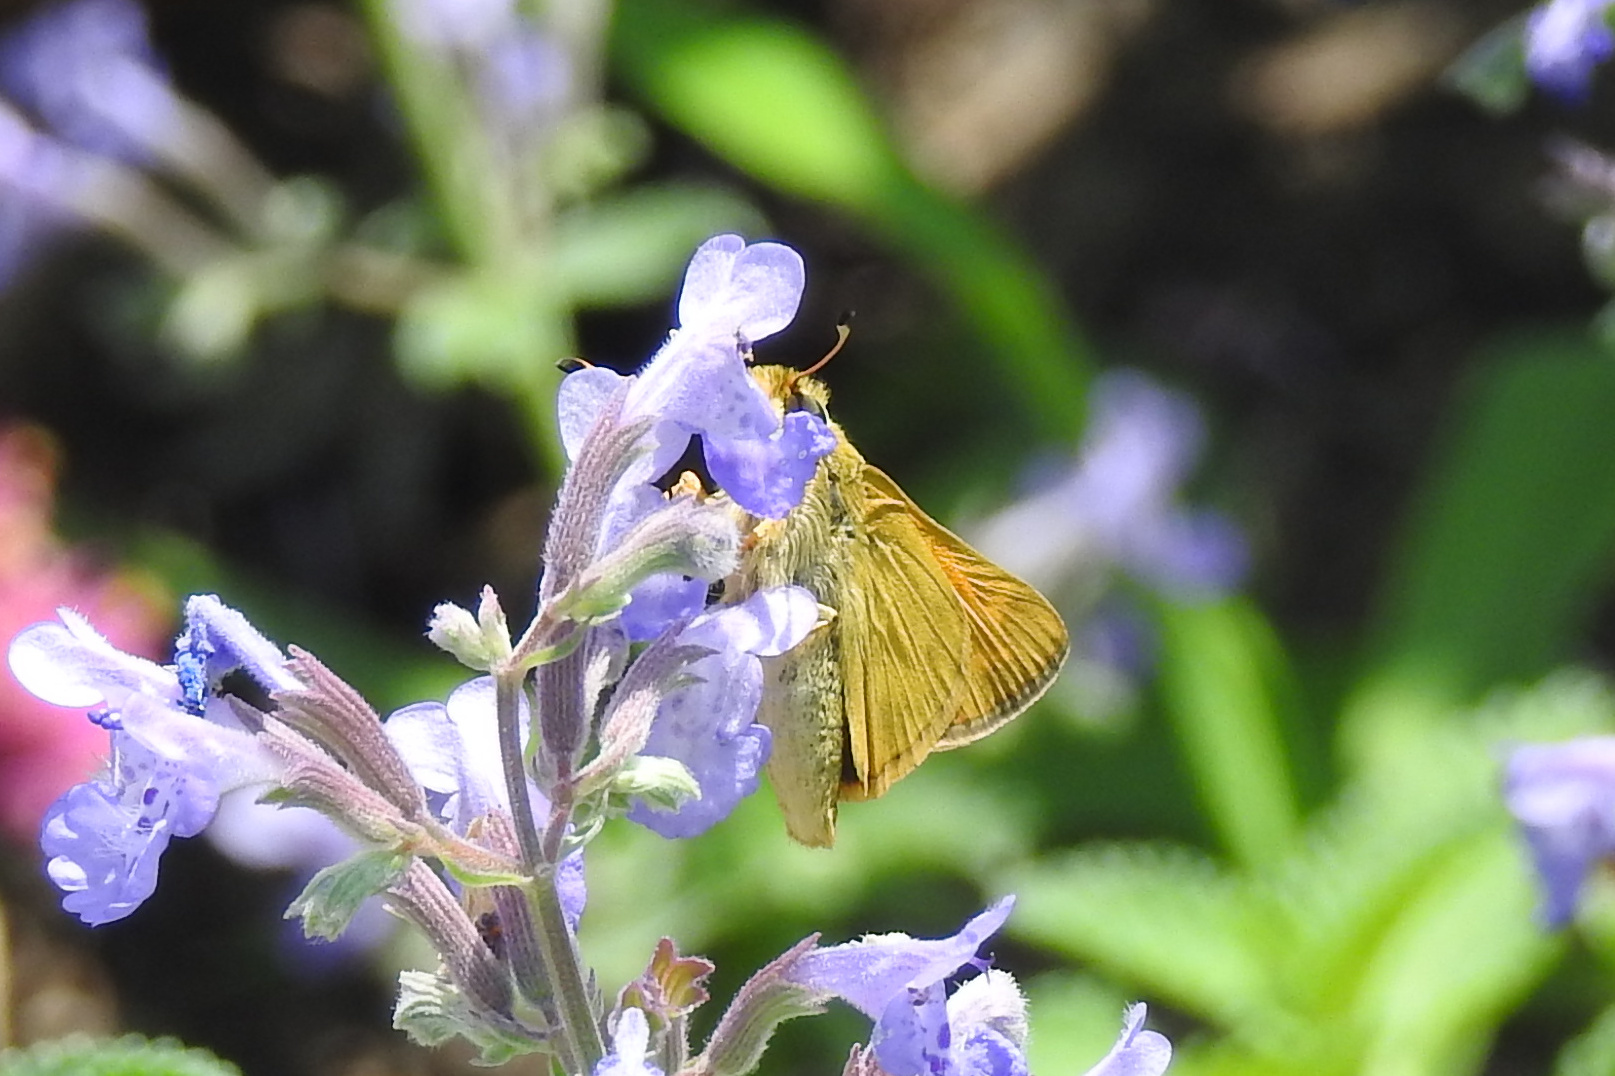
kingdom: Animalia
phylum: Arthropoda
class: Insecta
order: Lepidoptera
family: Hesperiidae
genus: Atalopedes
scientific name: Atalopedes
